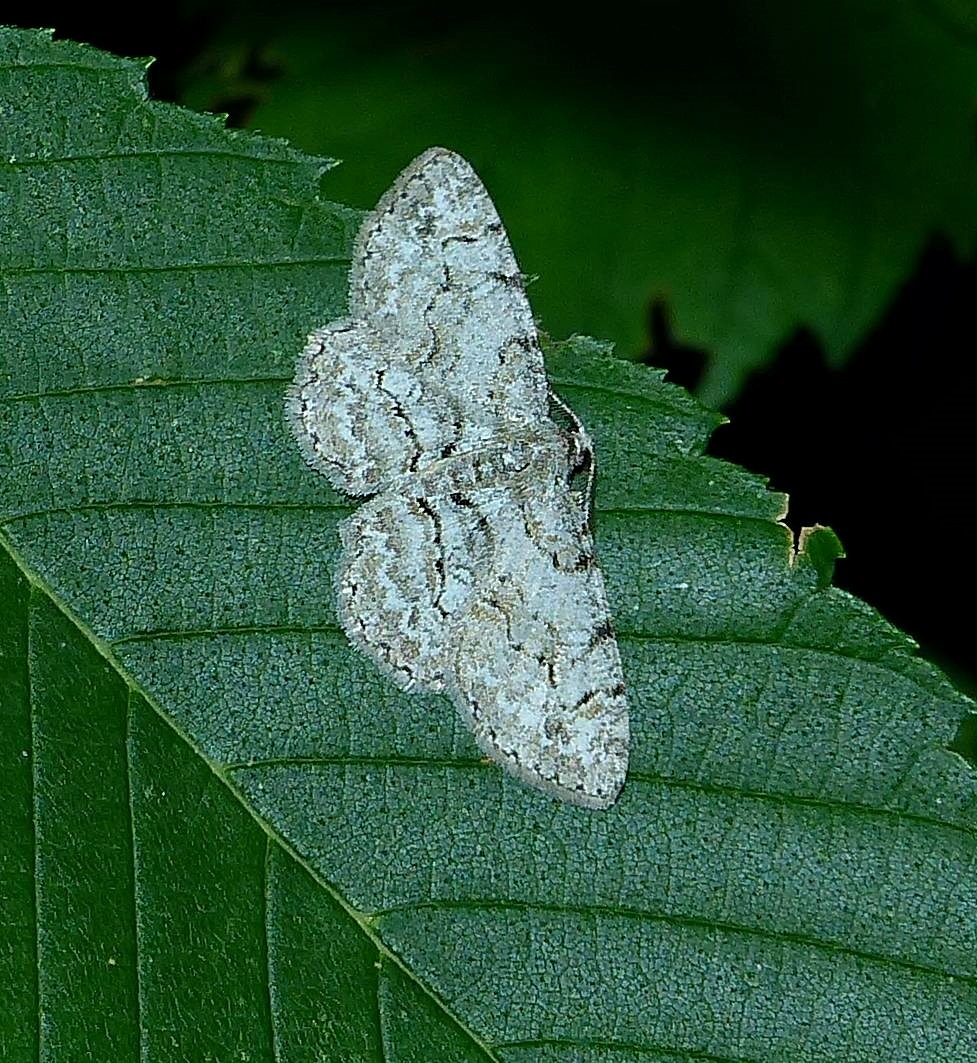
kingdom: Animalia
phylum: Arthropoda
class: Insecta
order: Lepidoptera
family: Geometridae
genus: Iridopsis
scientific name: Iridopsis ephyraria
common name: Pale-winged gray
